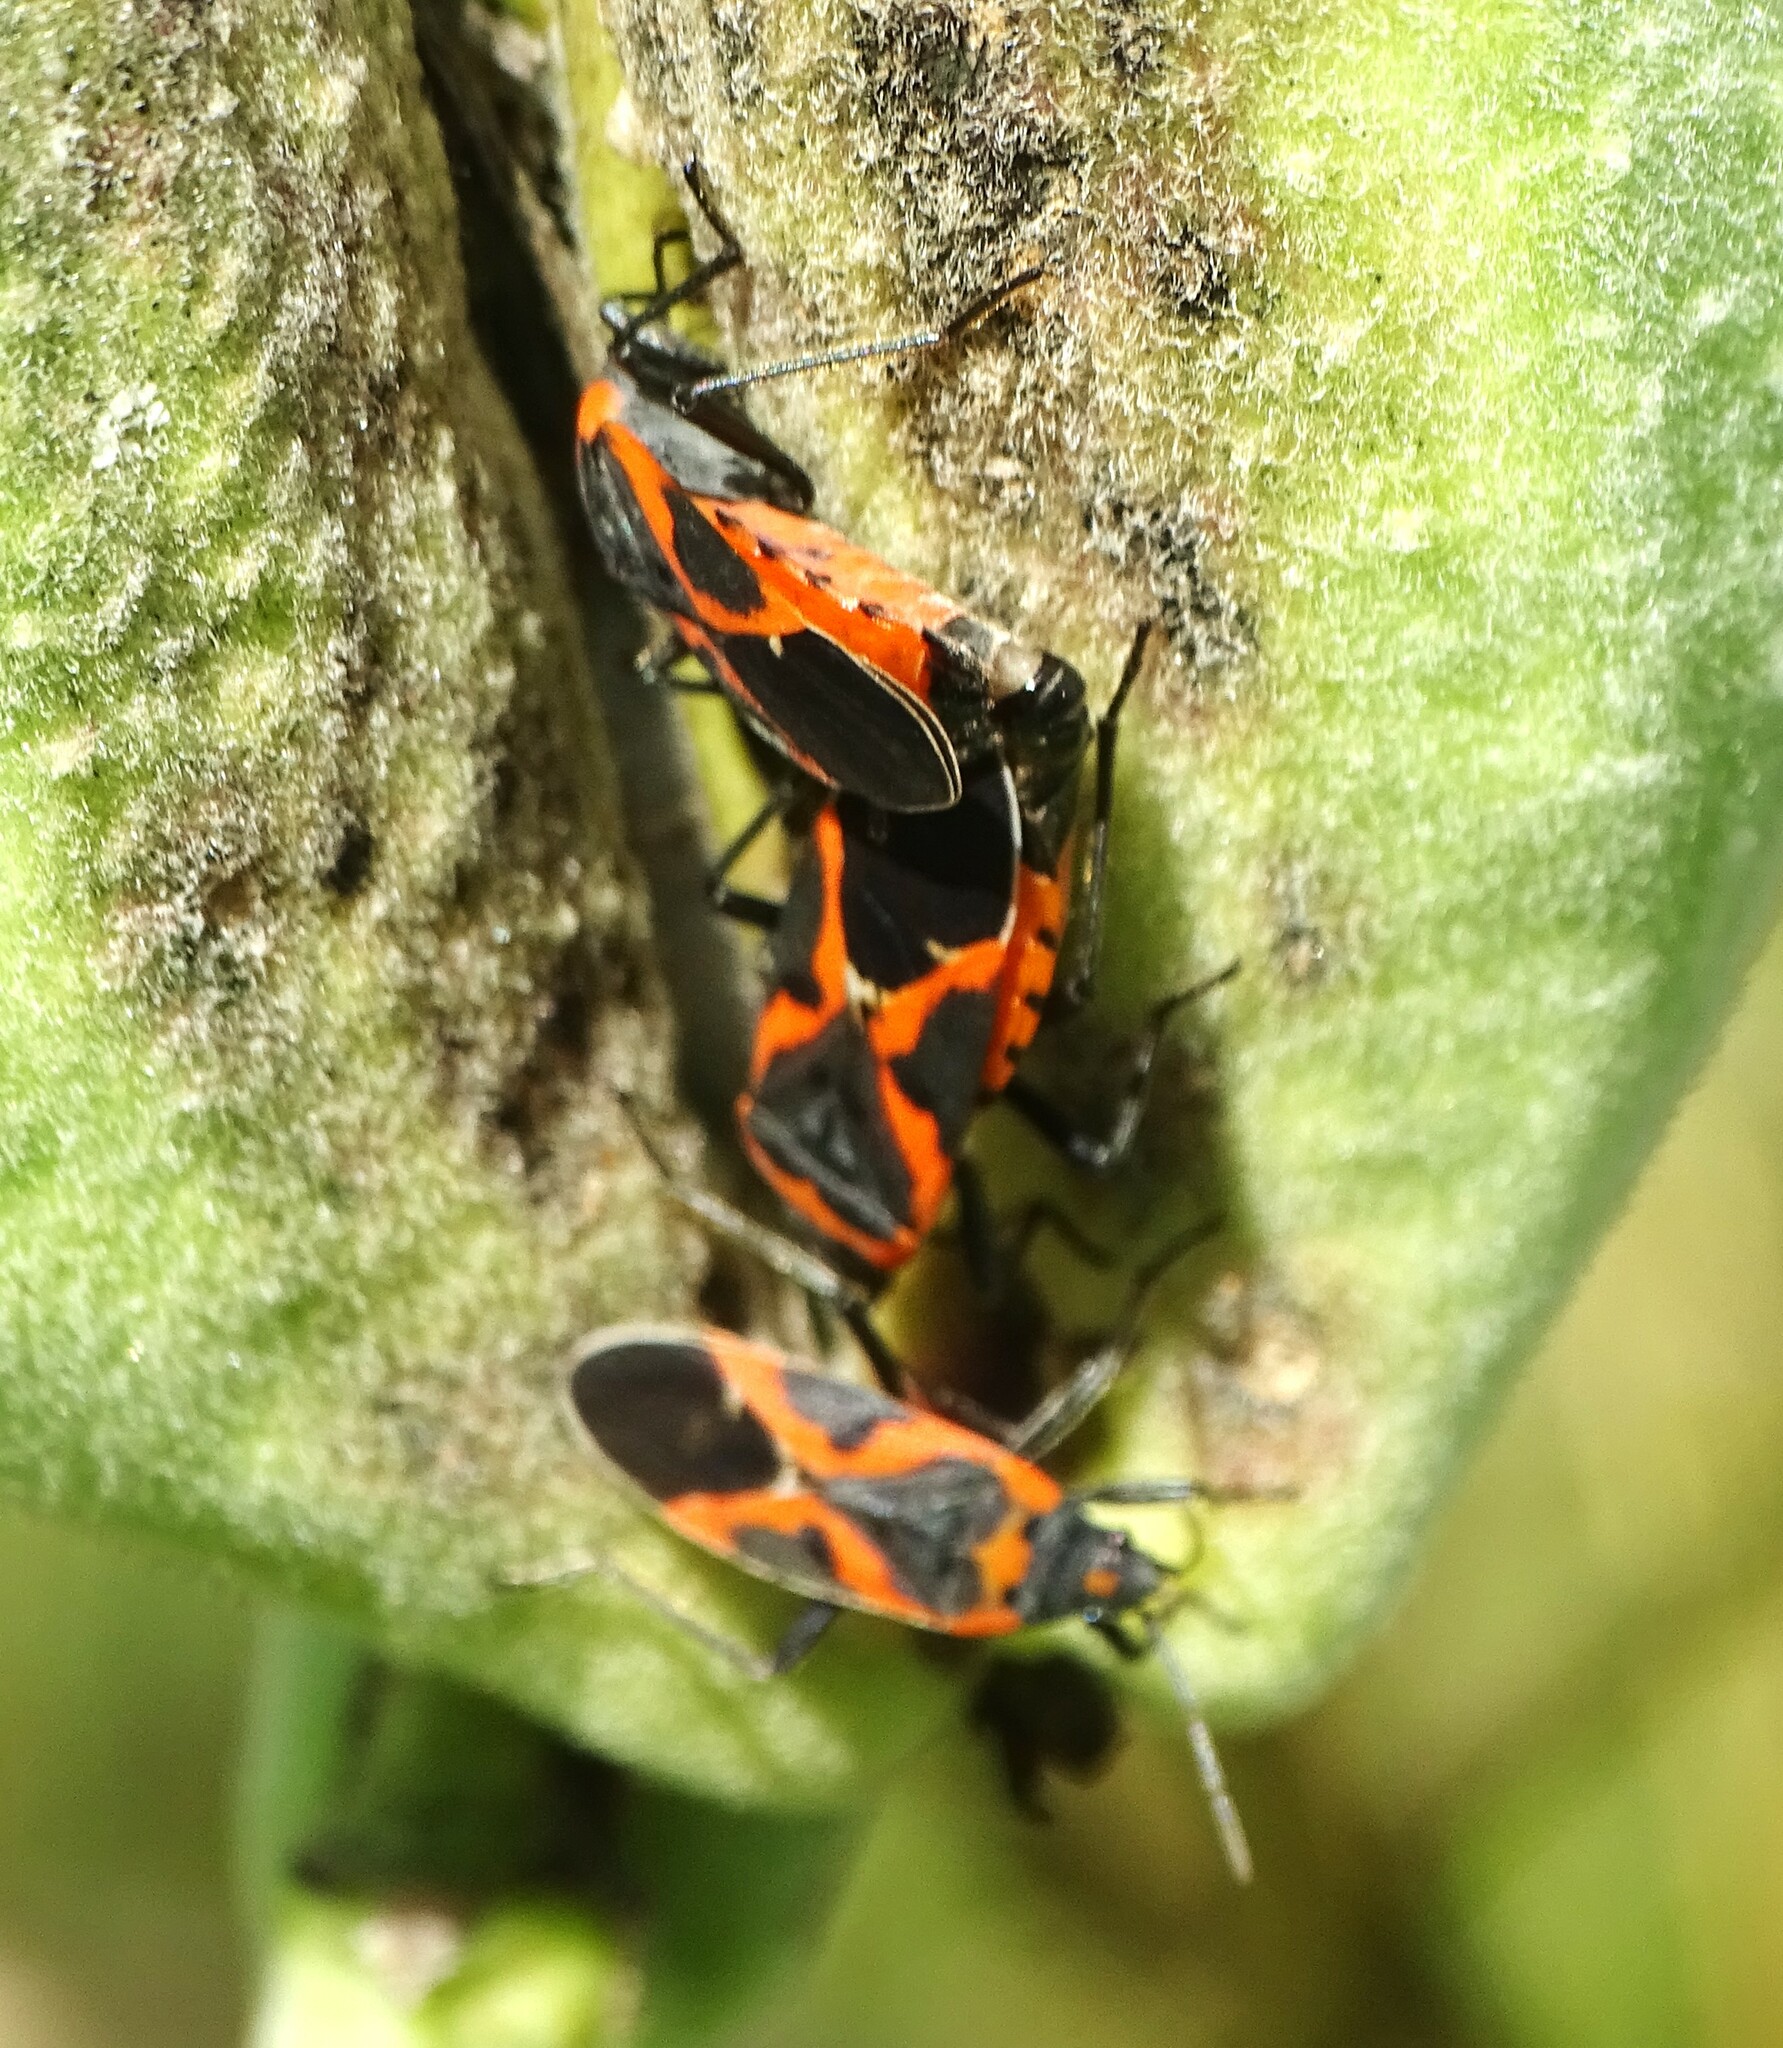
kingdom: Animalia
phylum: Arthropoda
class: Insecta
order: Hemiptera
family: Lygaeidae
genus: Lygaeus
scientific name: Lygaeus kalmii
